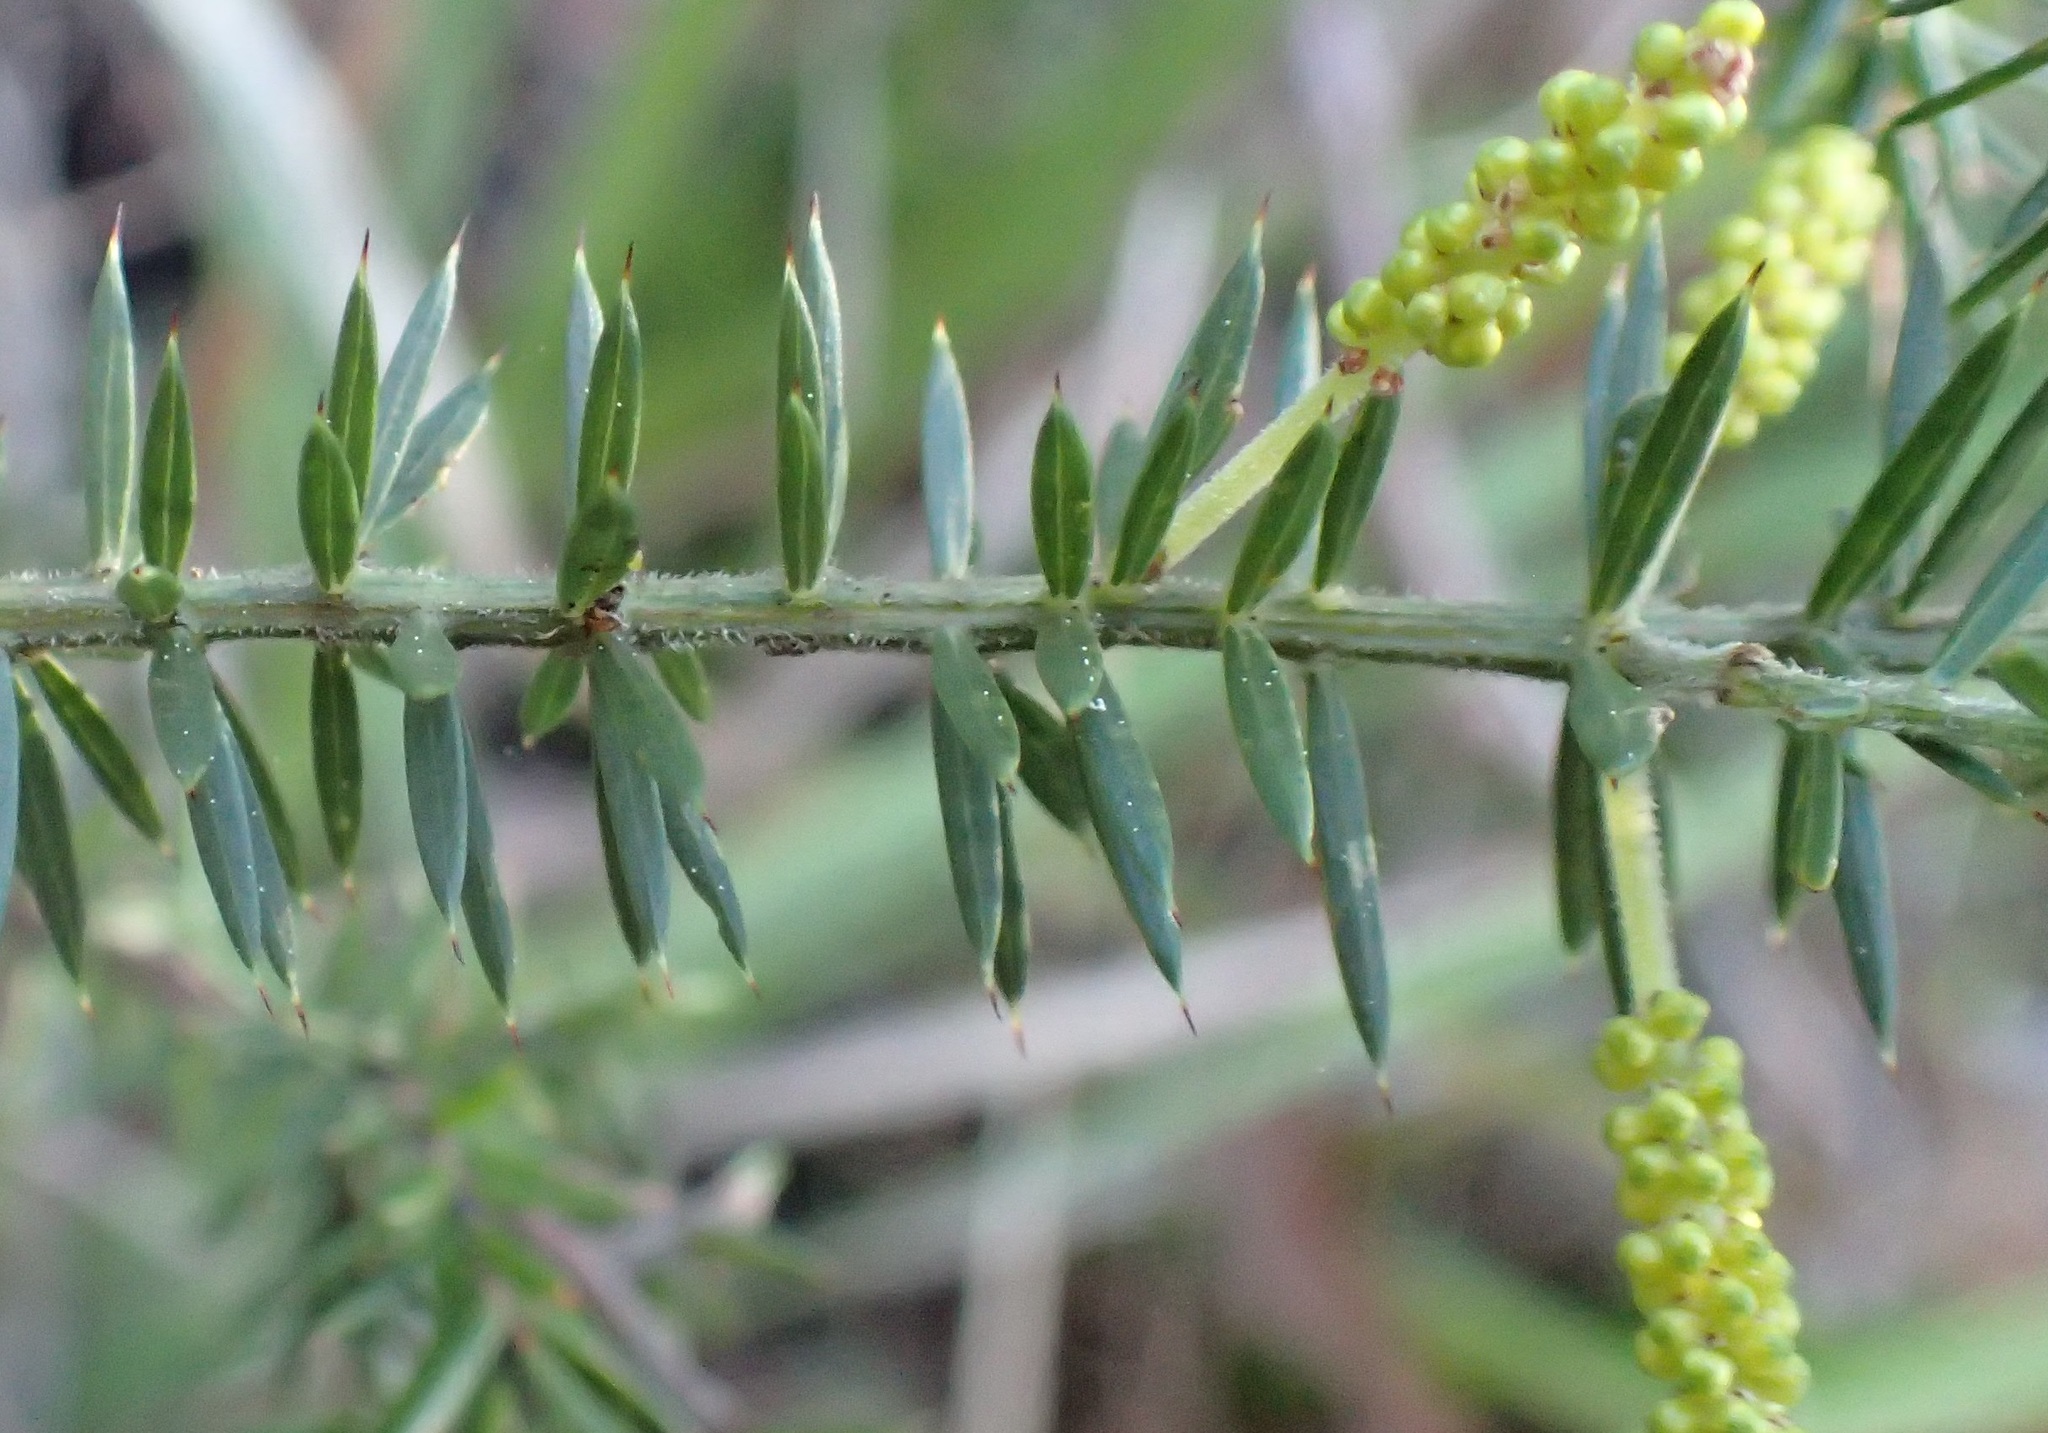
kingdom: Plantae
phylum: Tracheophyta
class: Magnoliopsida
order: Fabales
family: Fabaceae
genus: Acacia
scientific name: Acacia verticillata
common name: Prickly moses
